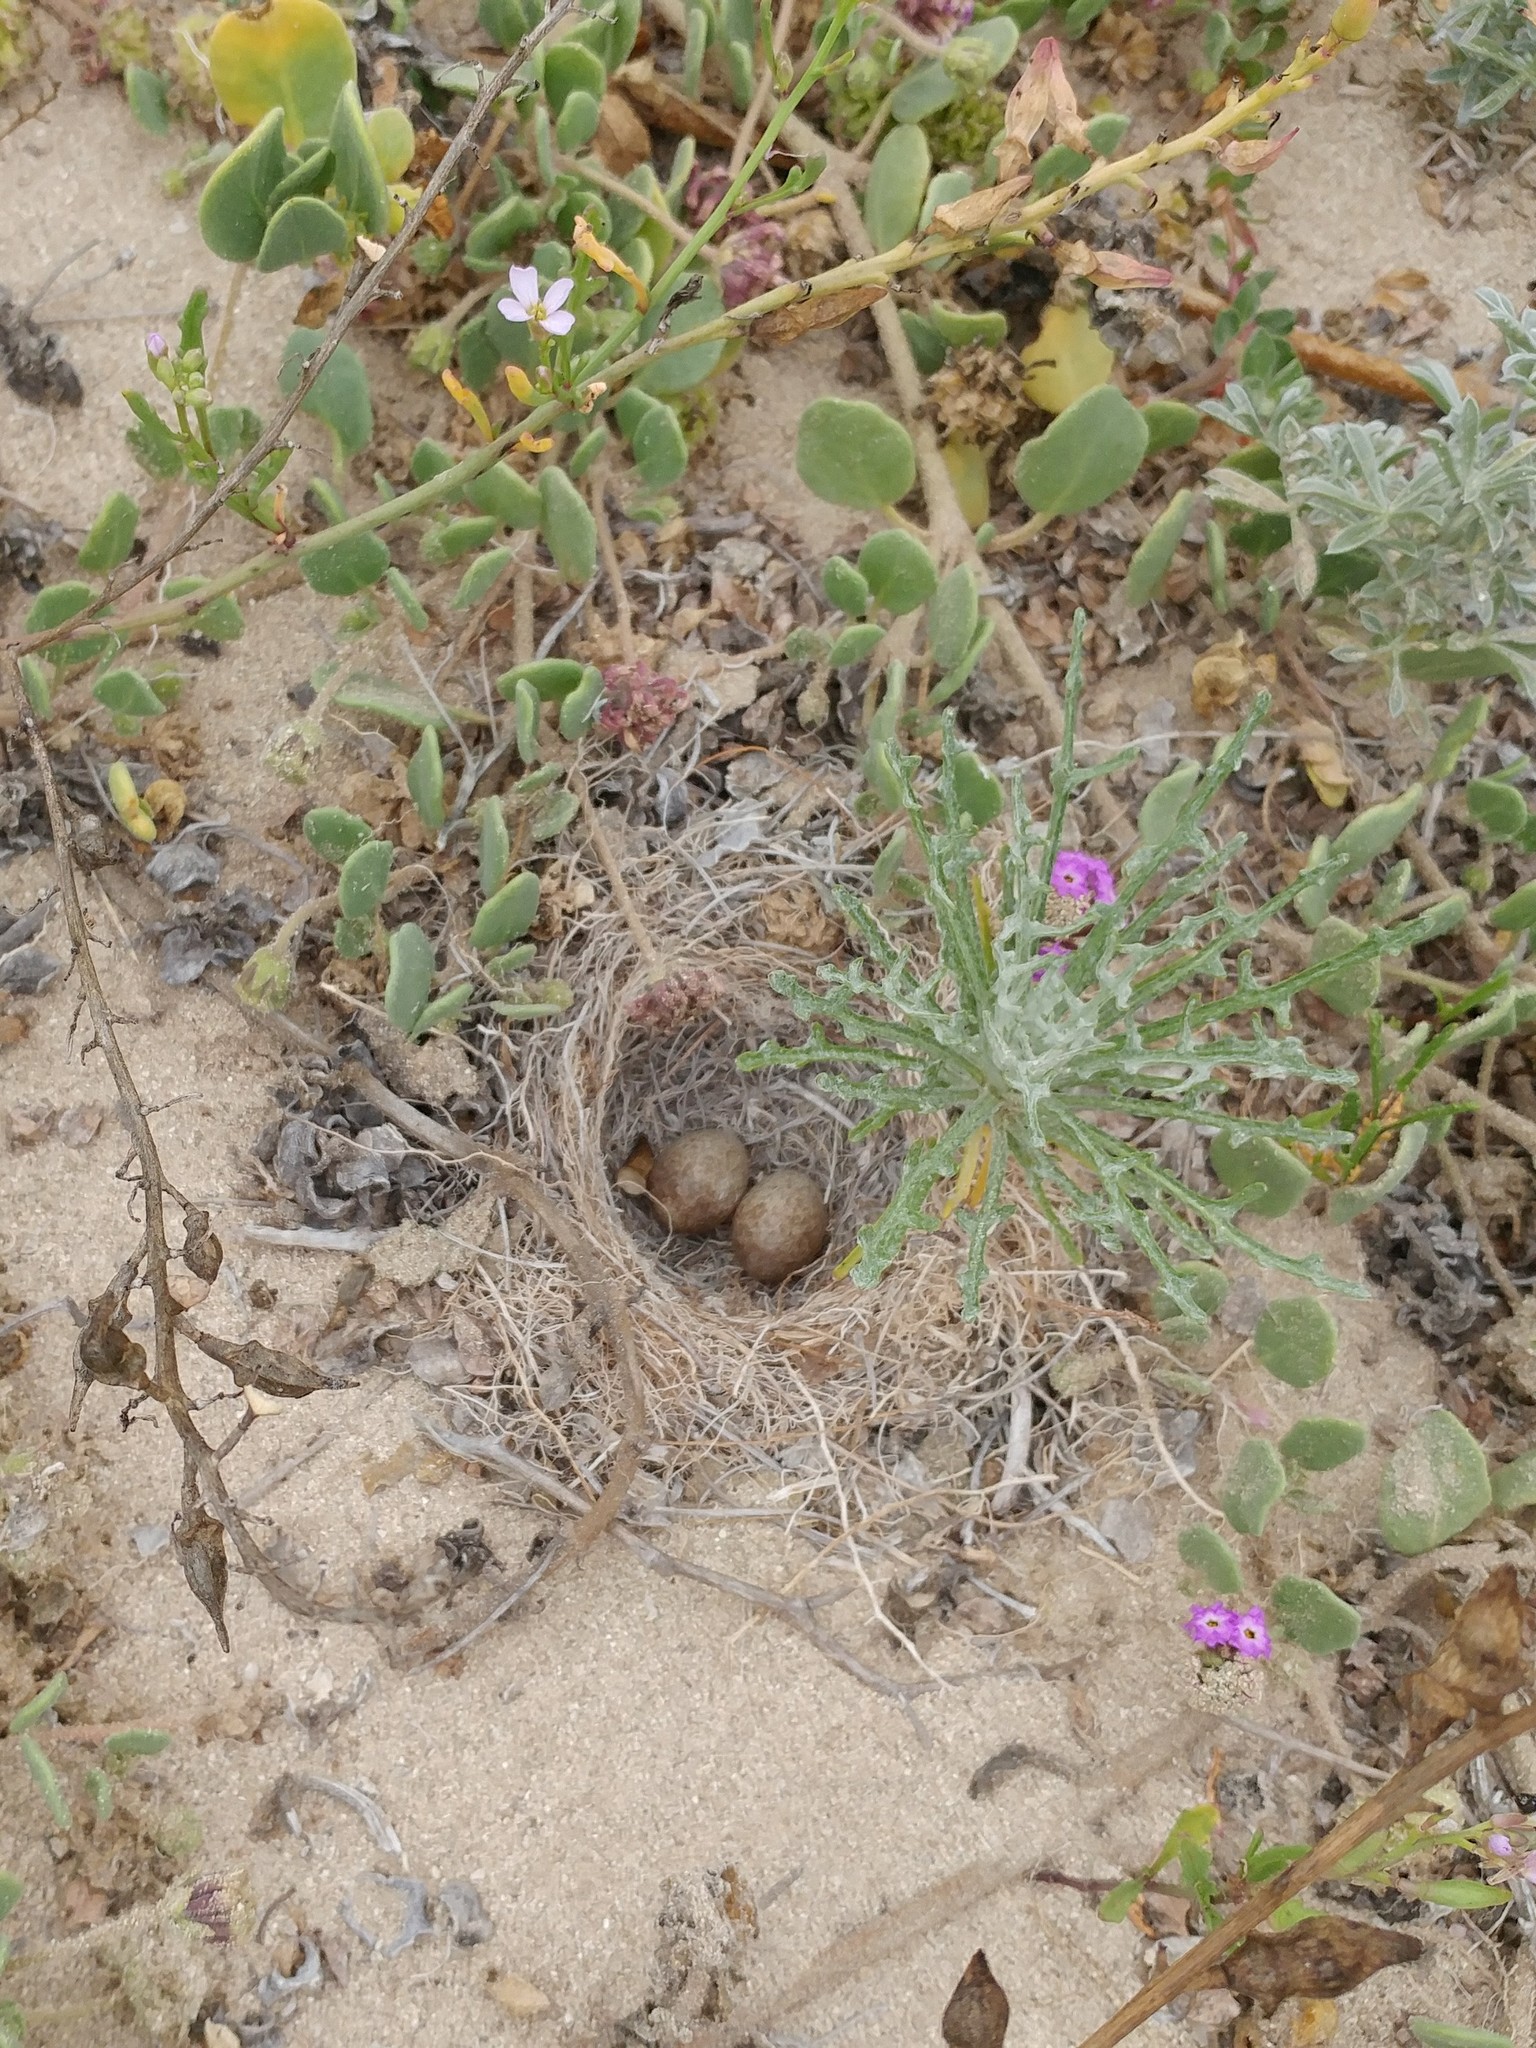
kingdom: Animalia
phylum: Chordata
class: Aves
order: Passeriformes
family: Alaudidae
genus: Eremophila
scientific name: Eremophila alpestris
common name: Horned lark
